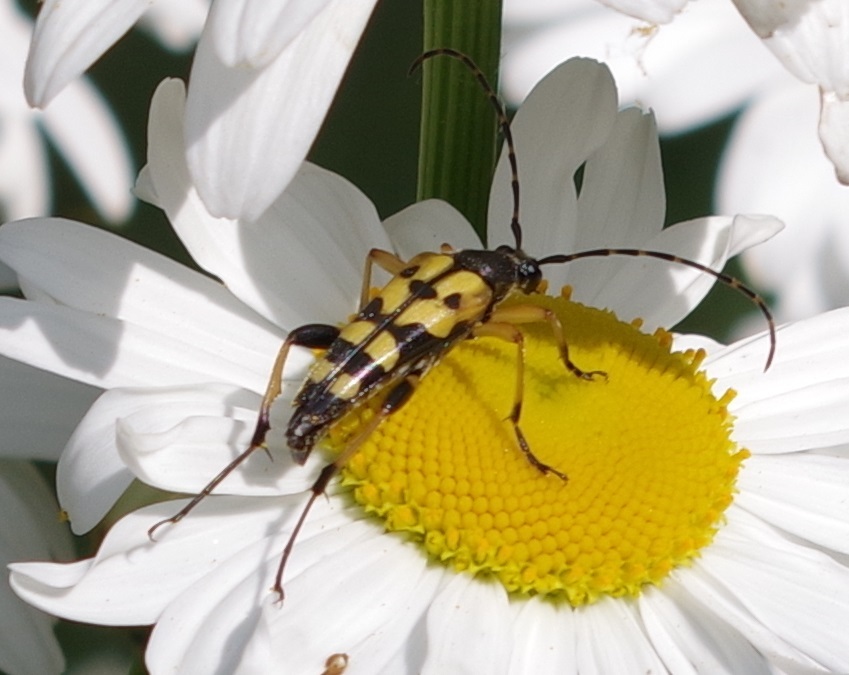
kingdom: Animalia
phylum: Arthropoda
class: Insecta
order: Coleoptera
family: Cerambycidae
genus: Rutpela
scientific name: Rutpela maculata
